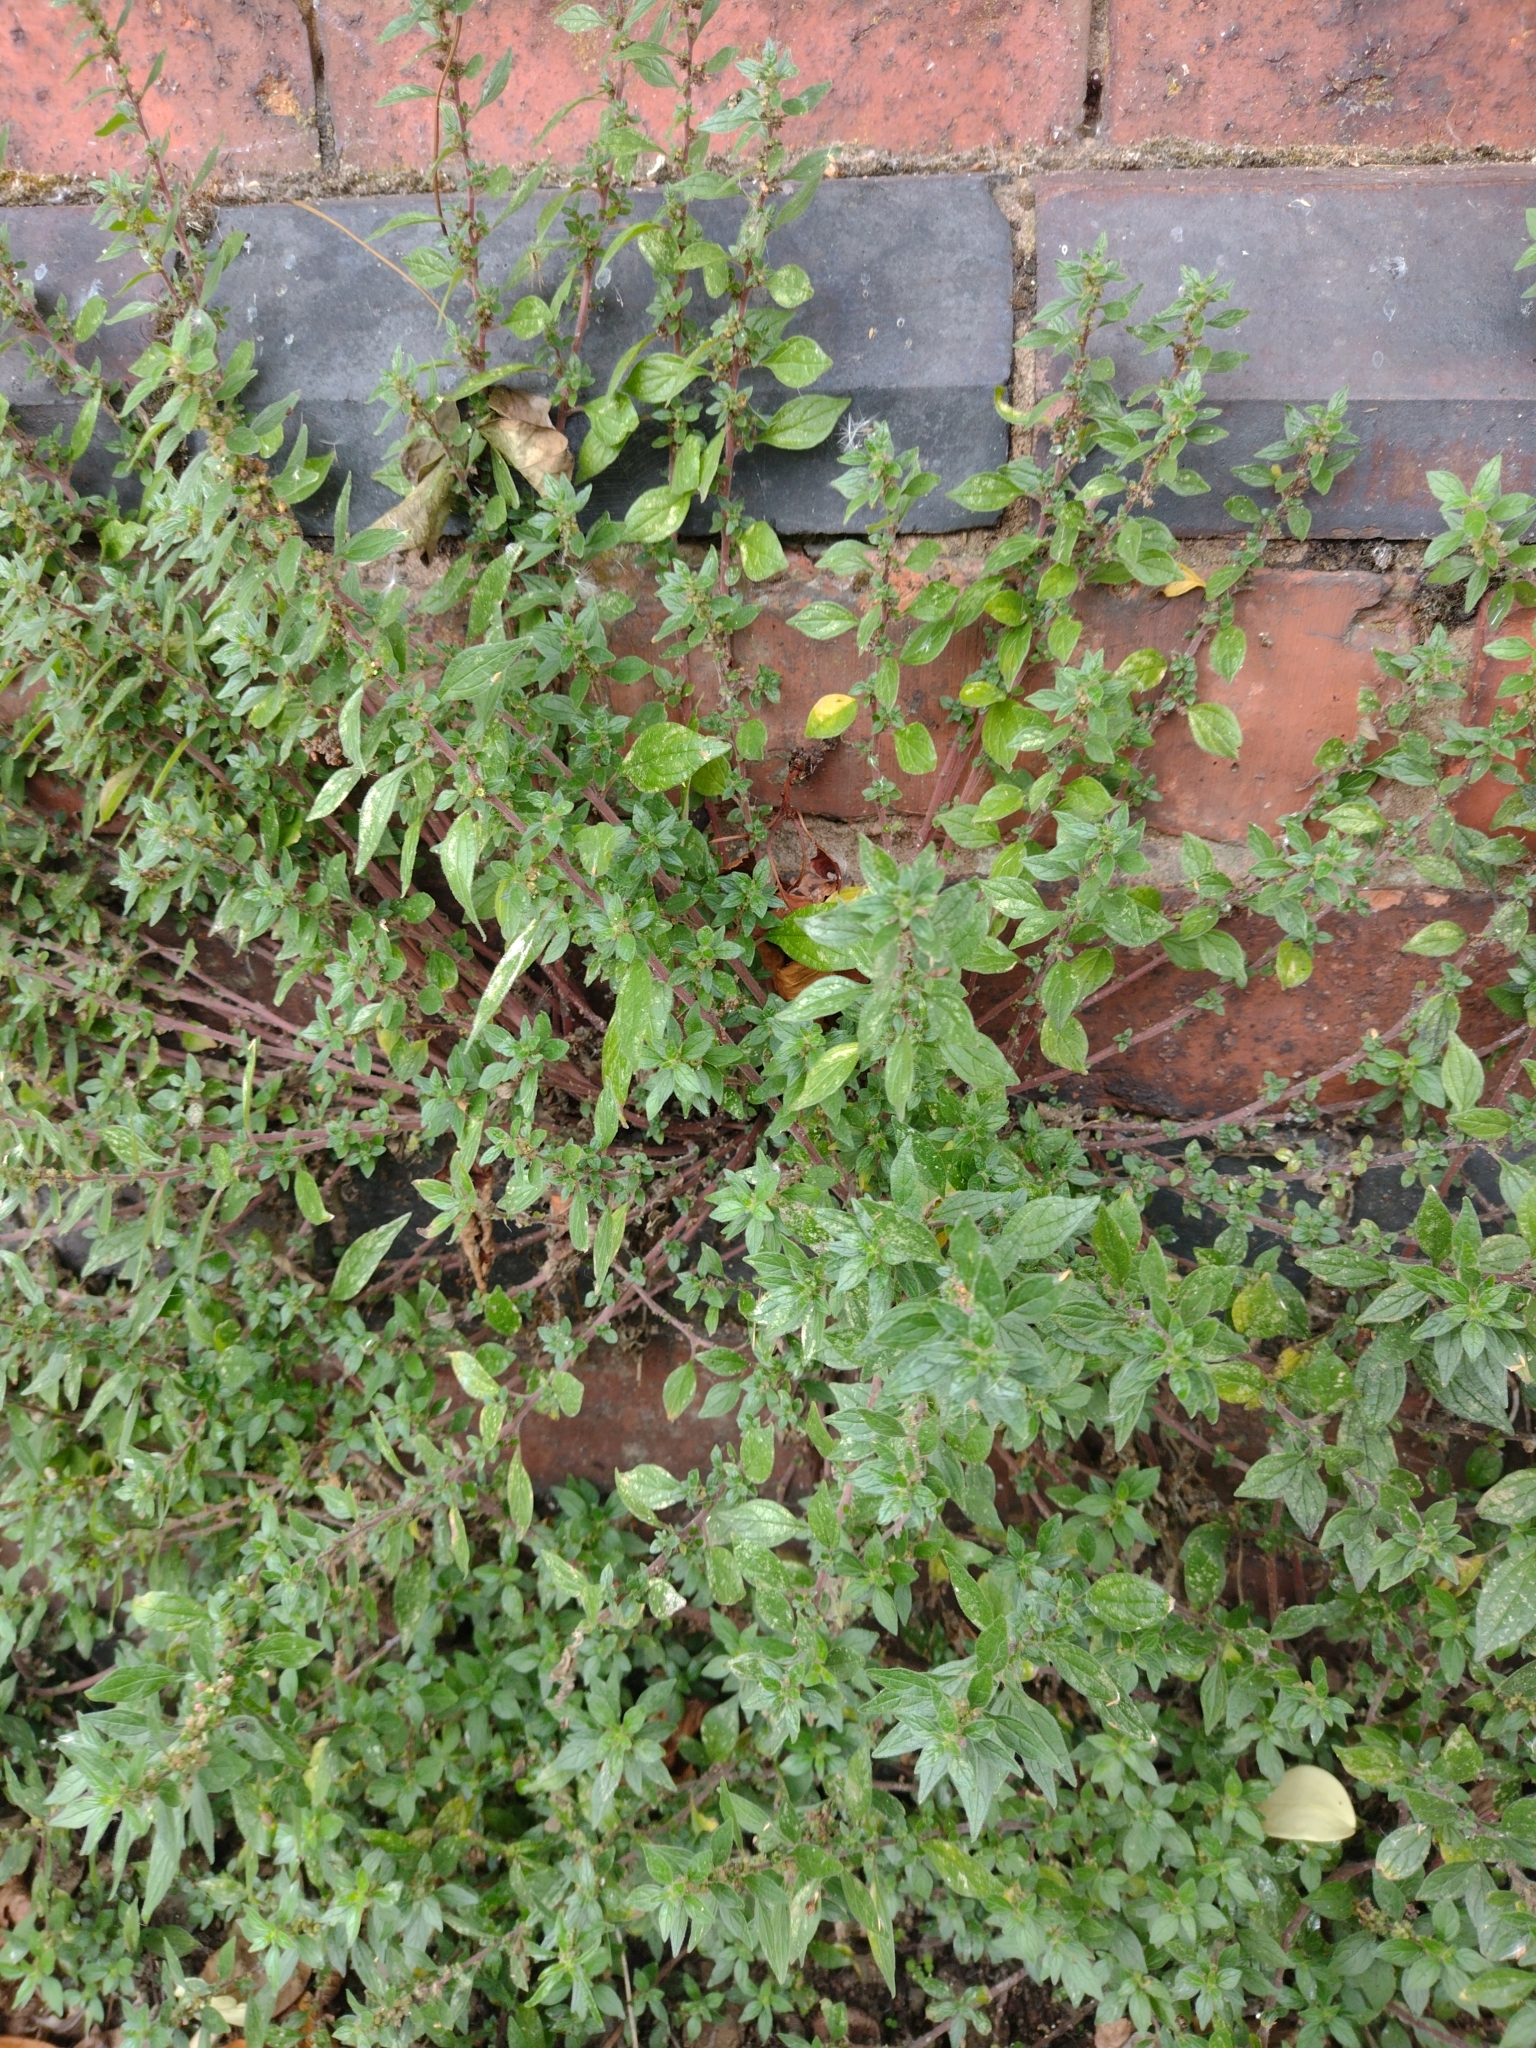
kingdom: Plantae
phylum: Tracheophyta
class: Magnoliopsida
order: Rosales
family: Urticaceae
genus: Parietaria
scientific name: Parietaria judaica
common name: Pellitory-of-the-wall
